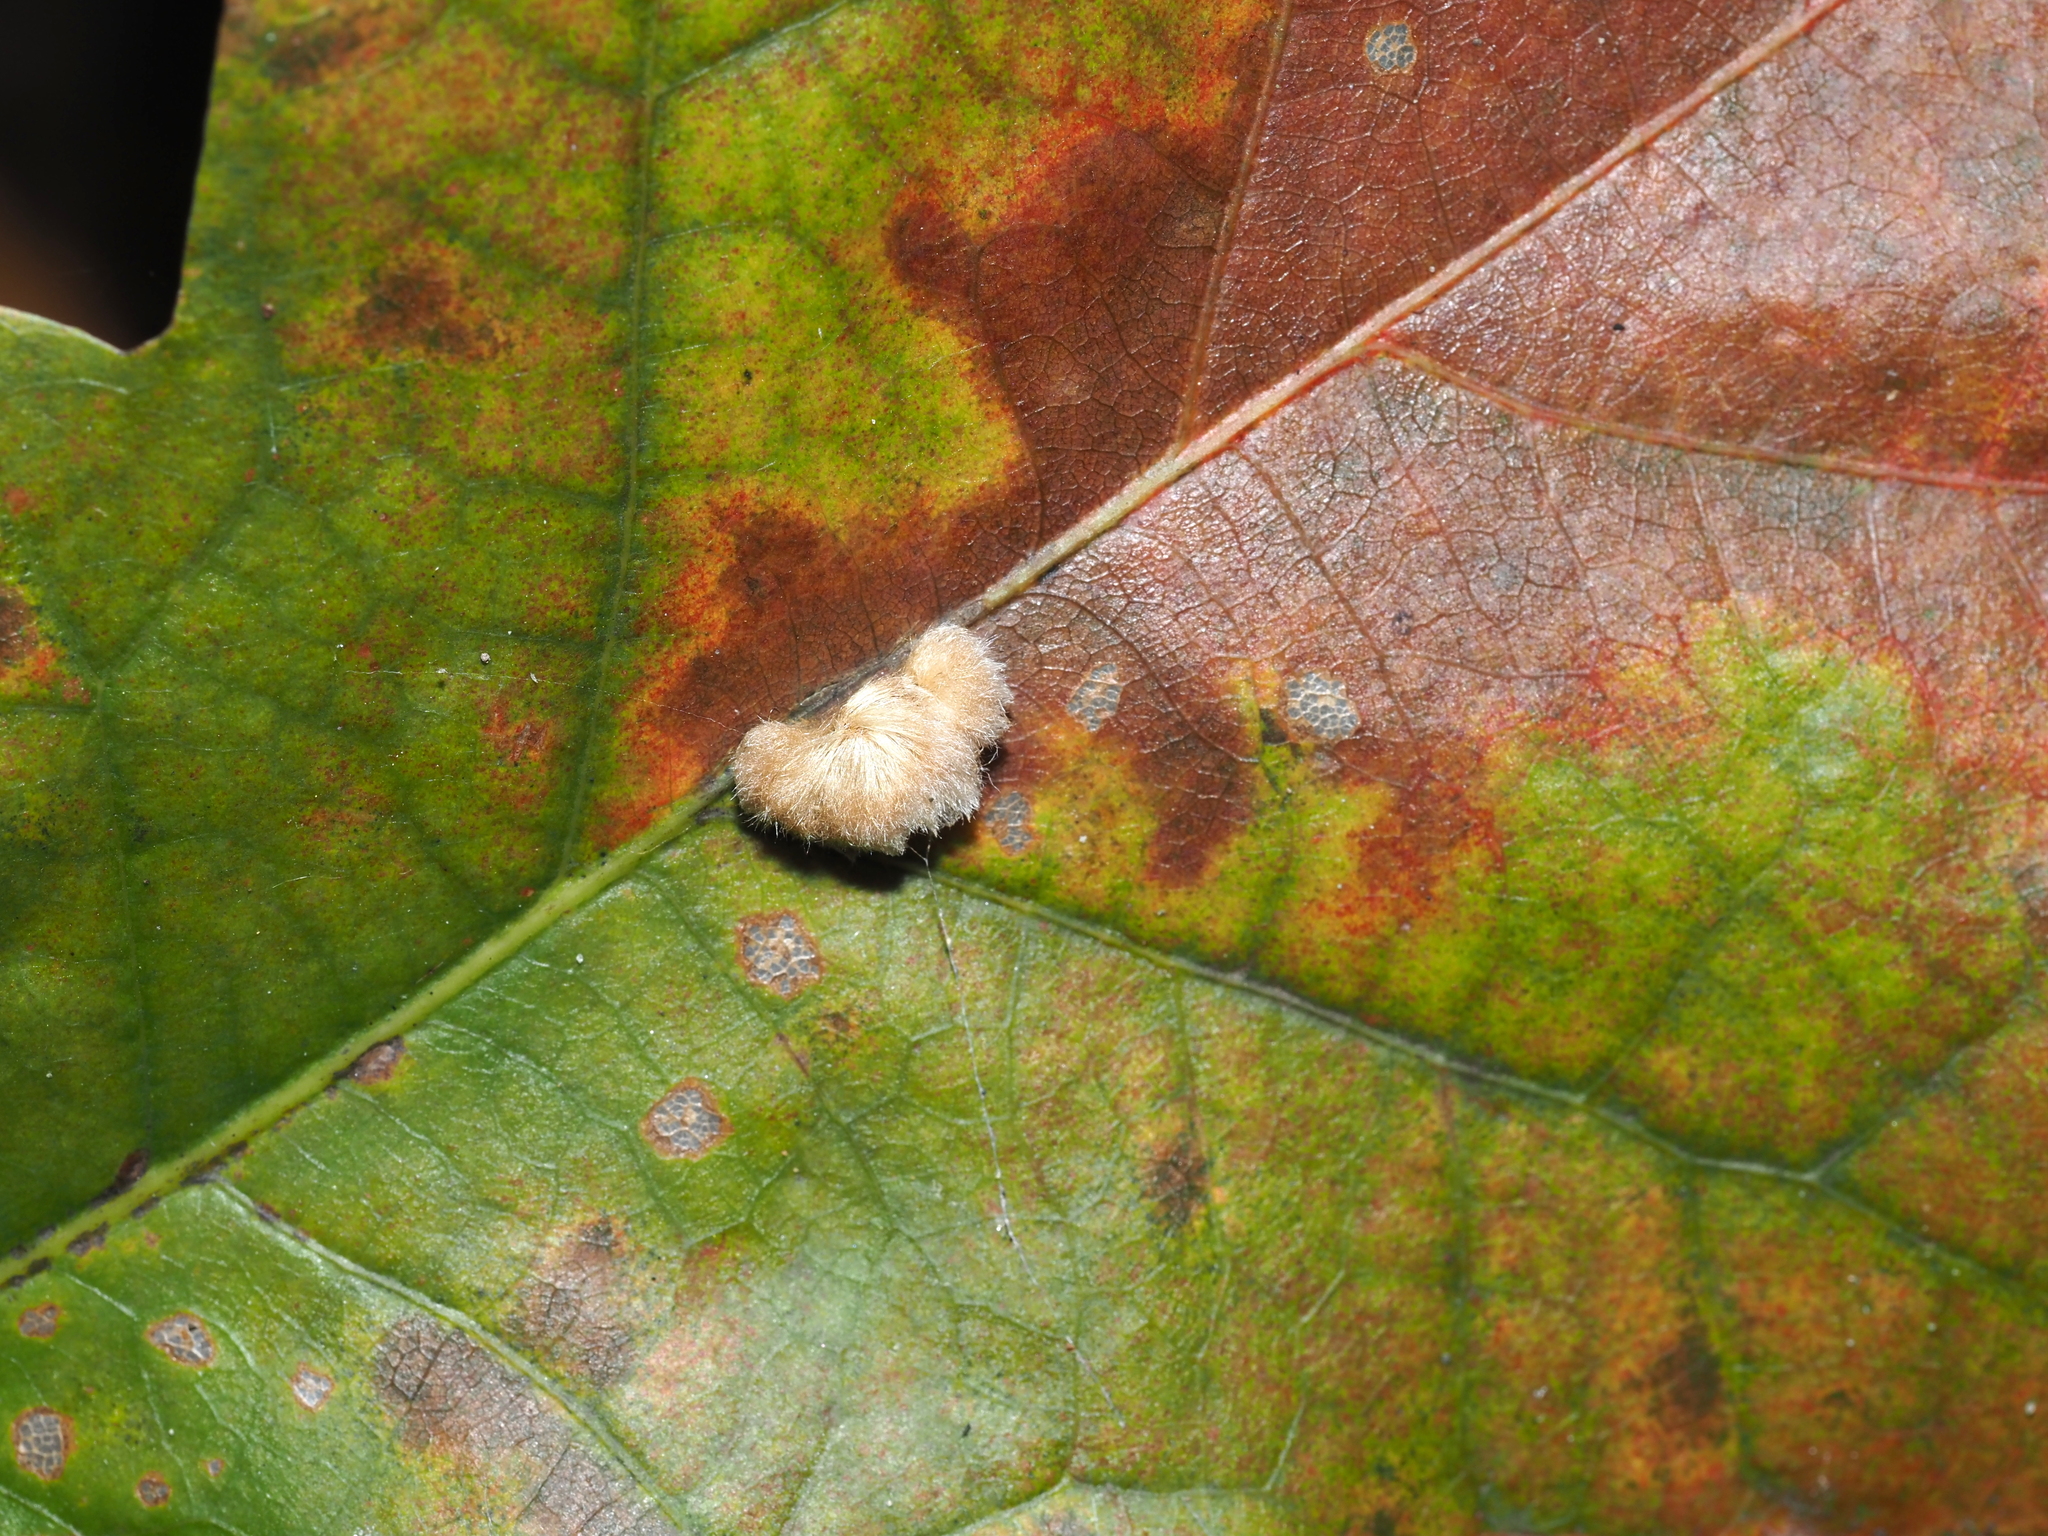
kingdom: Animalia
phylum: Arthropoda
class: Insecta
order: Hymenoptera
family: Cynipidae
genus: Andricus
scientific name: Andricus quercusflocci
